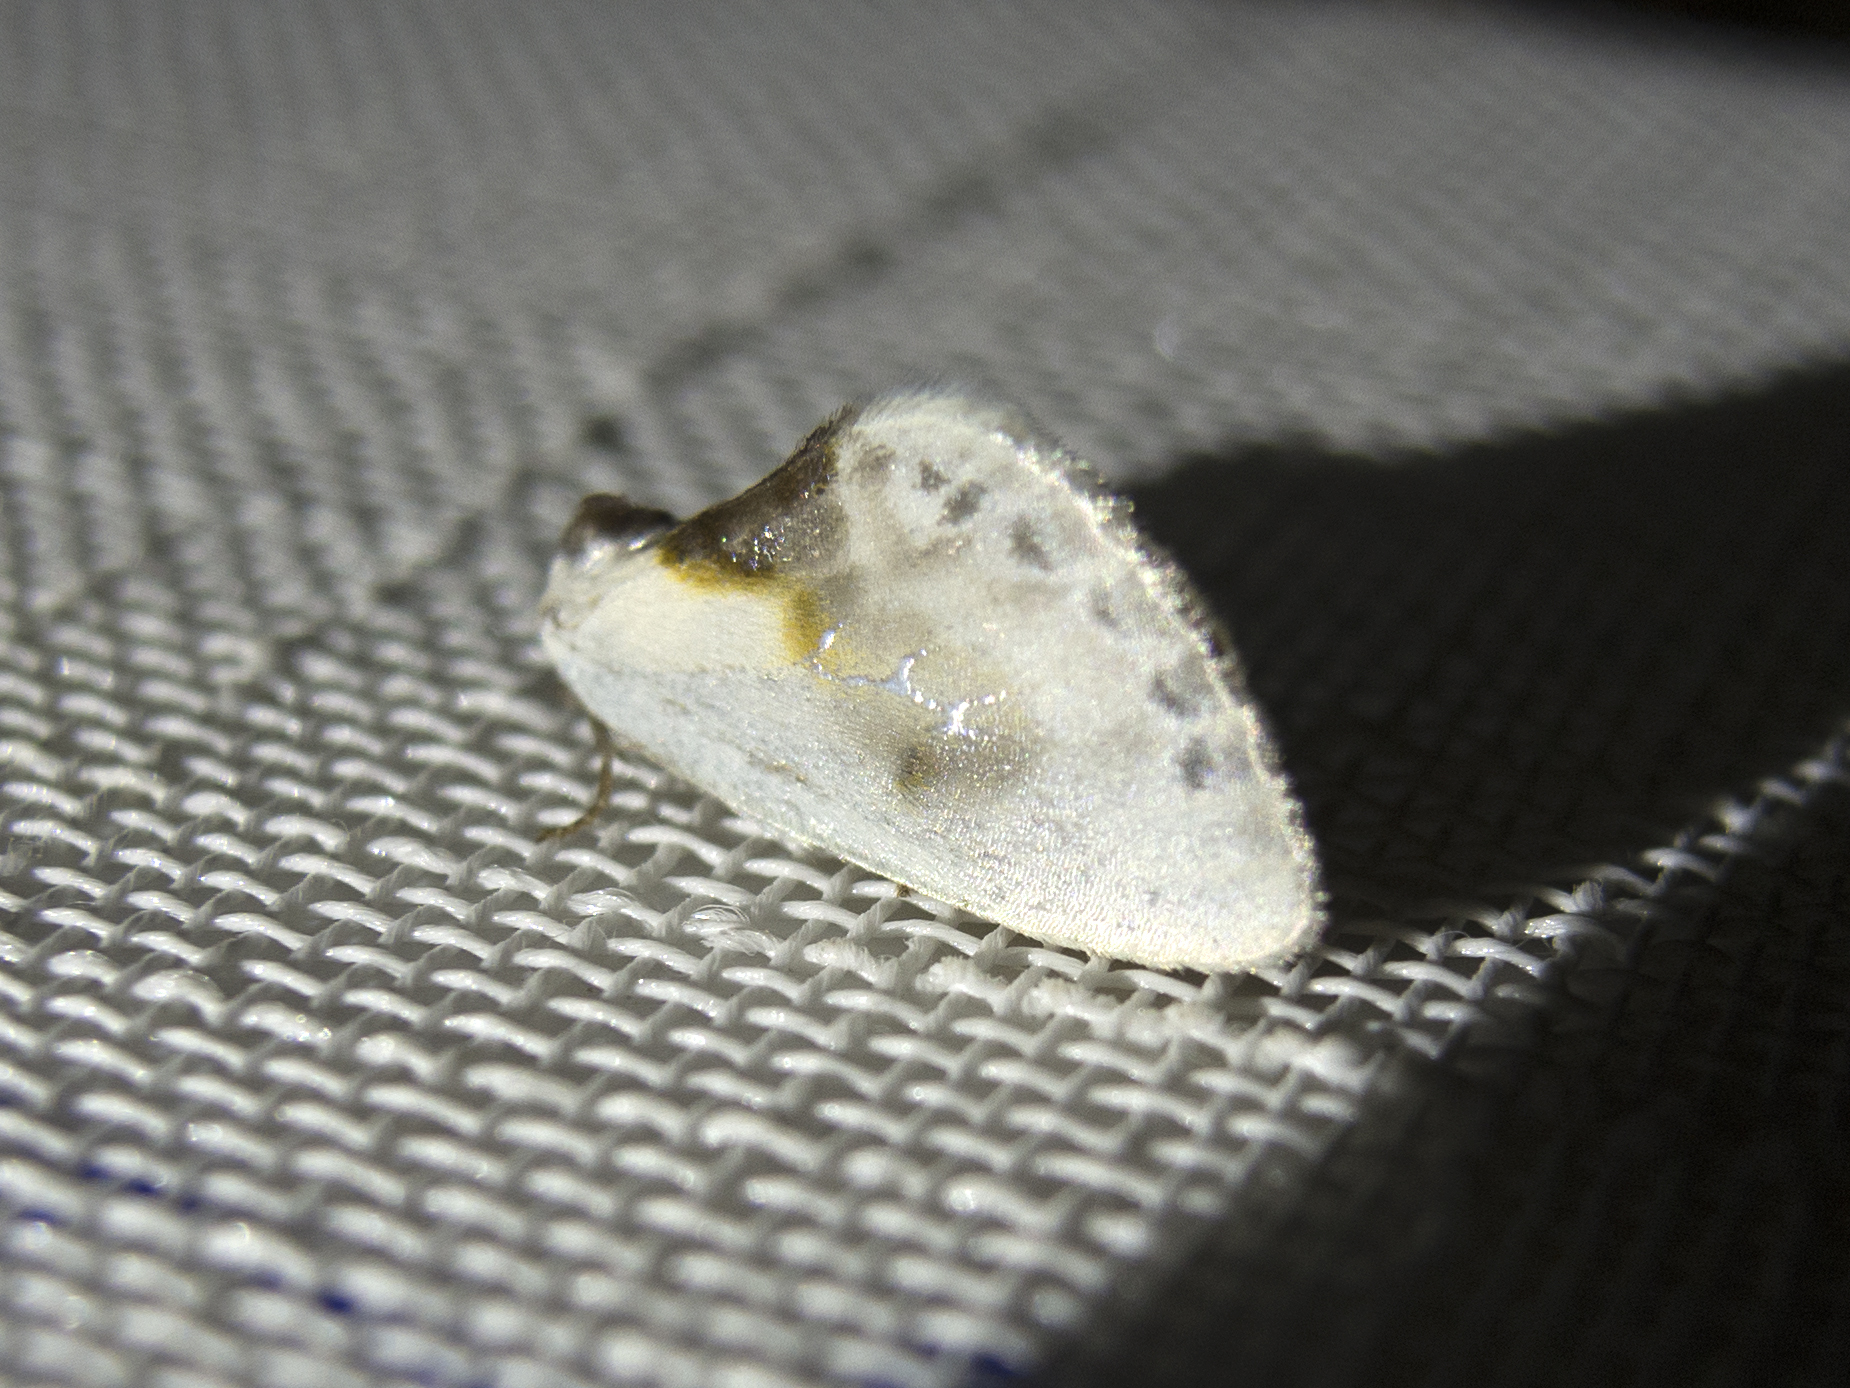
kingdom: Animalia
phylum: Arthropoda
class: Insecta
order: Lepidoptera
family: Drepanidae
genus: Cilix
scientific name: Cilix glaucata
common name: Chinese character
